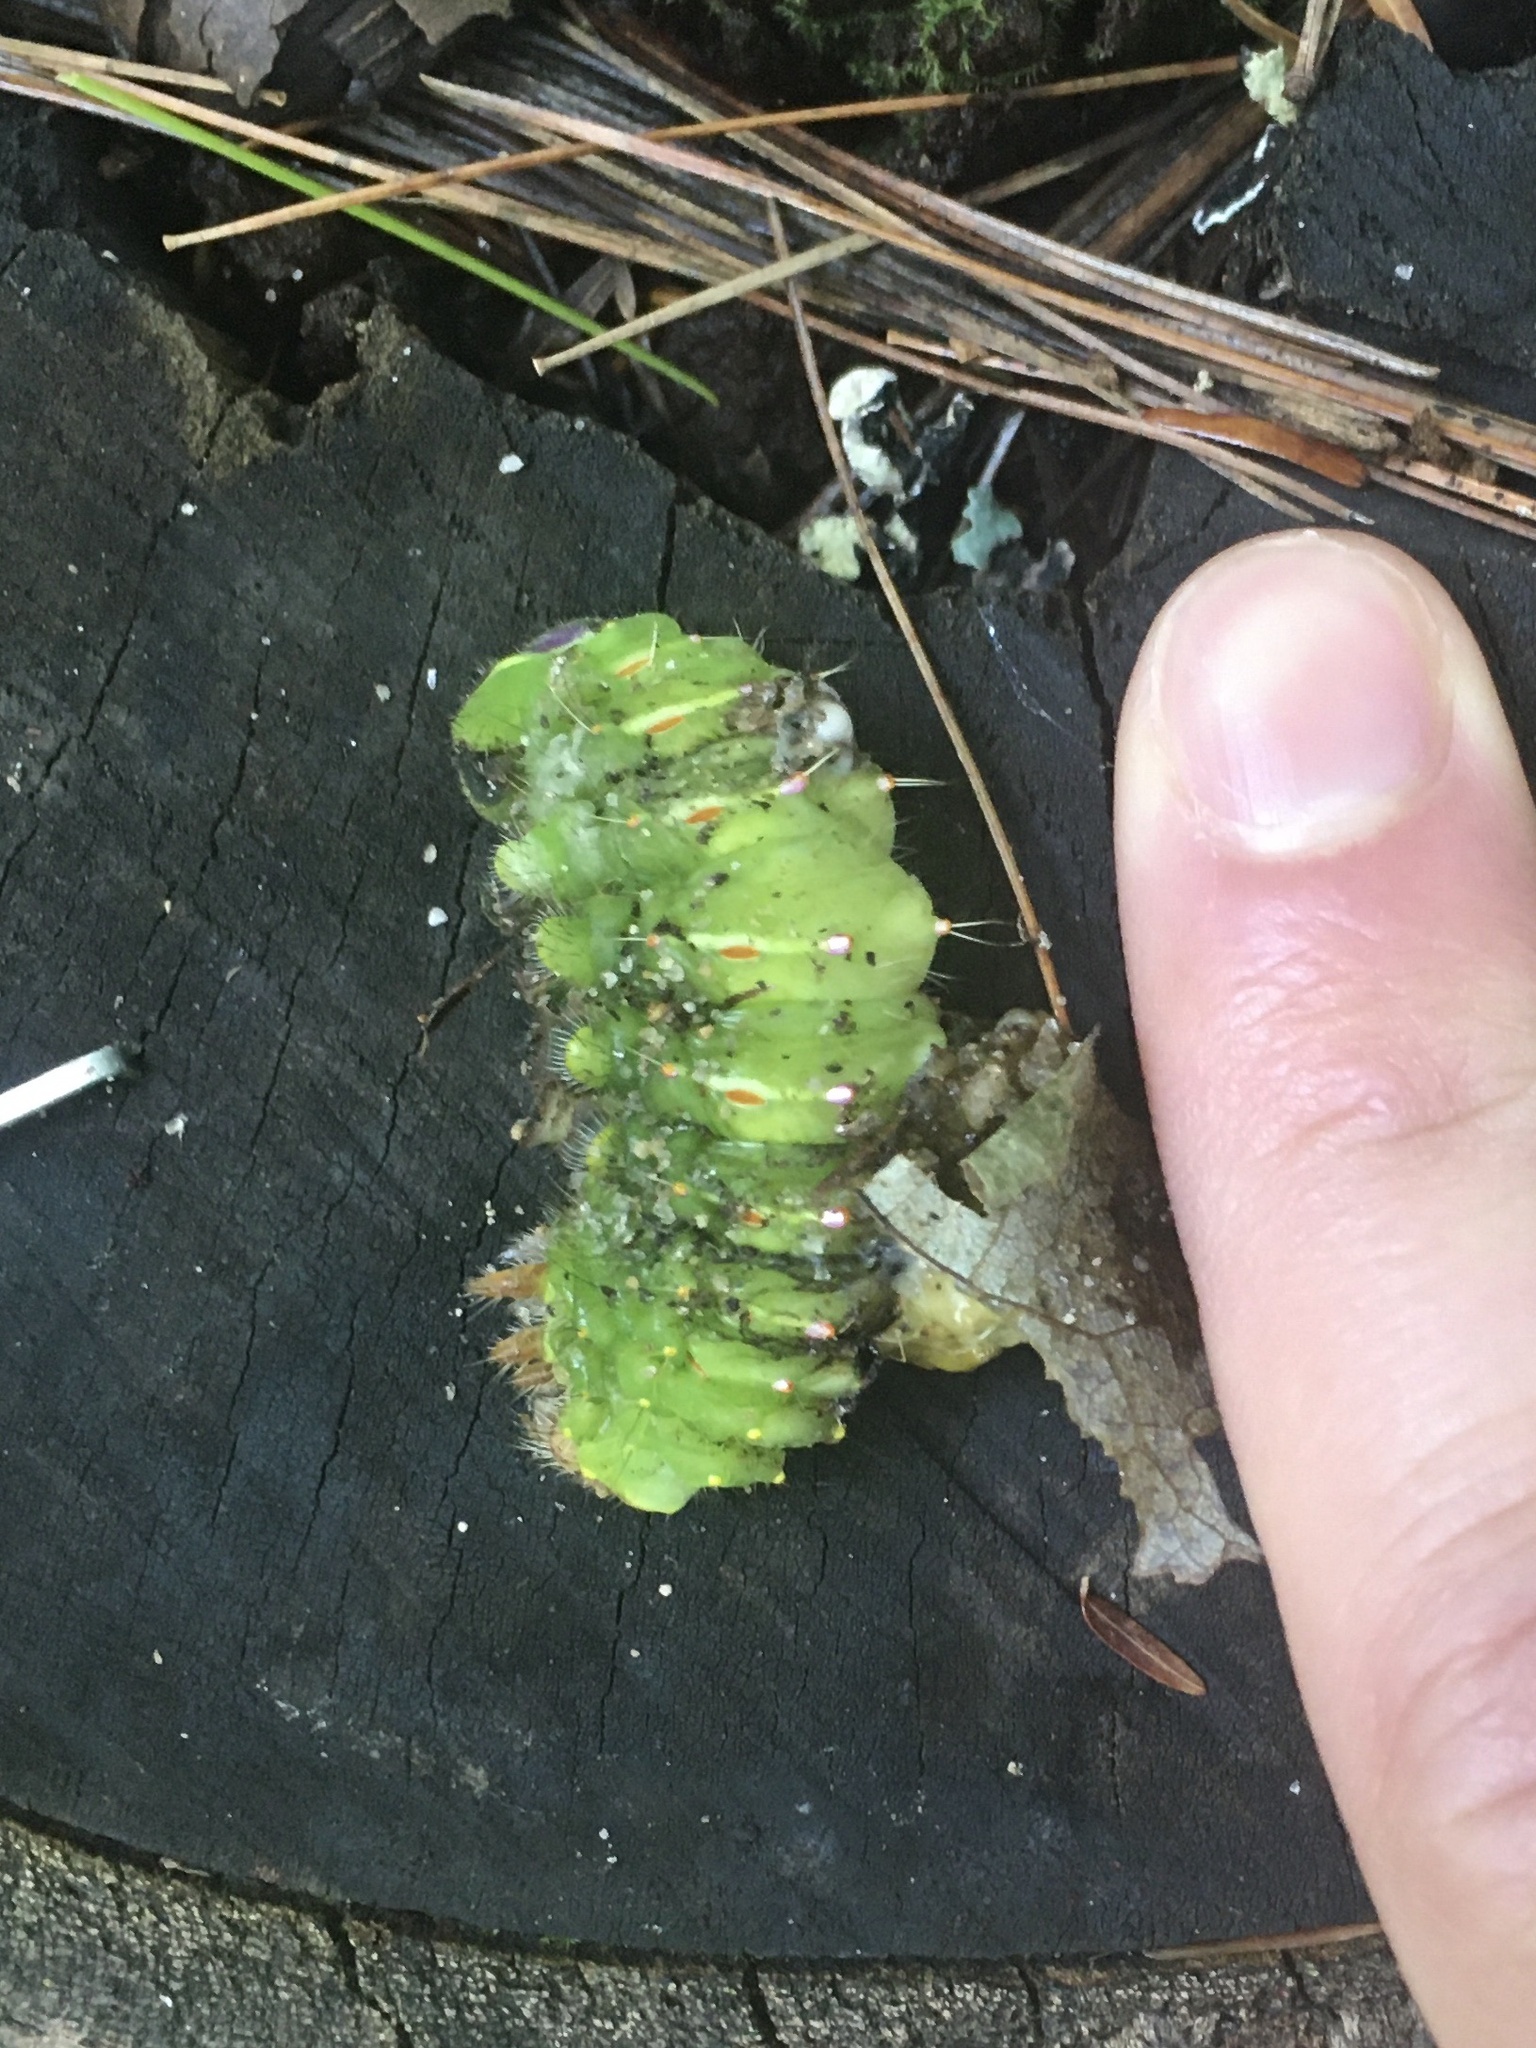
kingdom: Animalia
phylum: Arthropoda
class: Insecta
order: Lepidoptera
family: Saturniidae
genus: Antheraea
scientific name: Antheraea polyphemus
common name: Polyphemus moth
